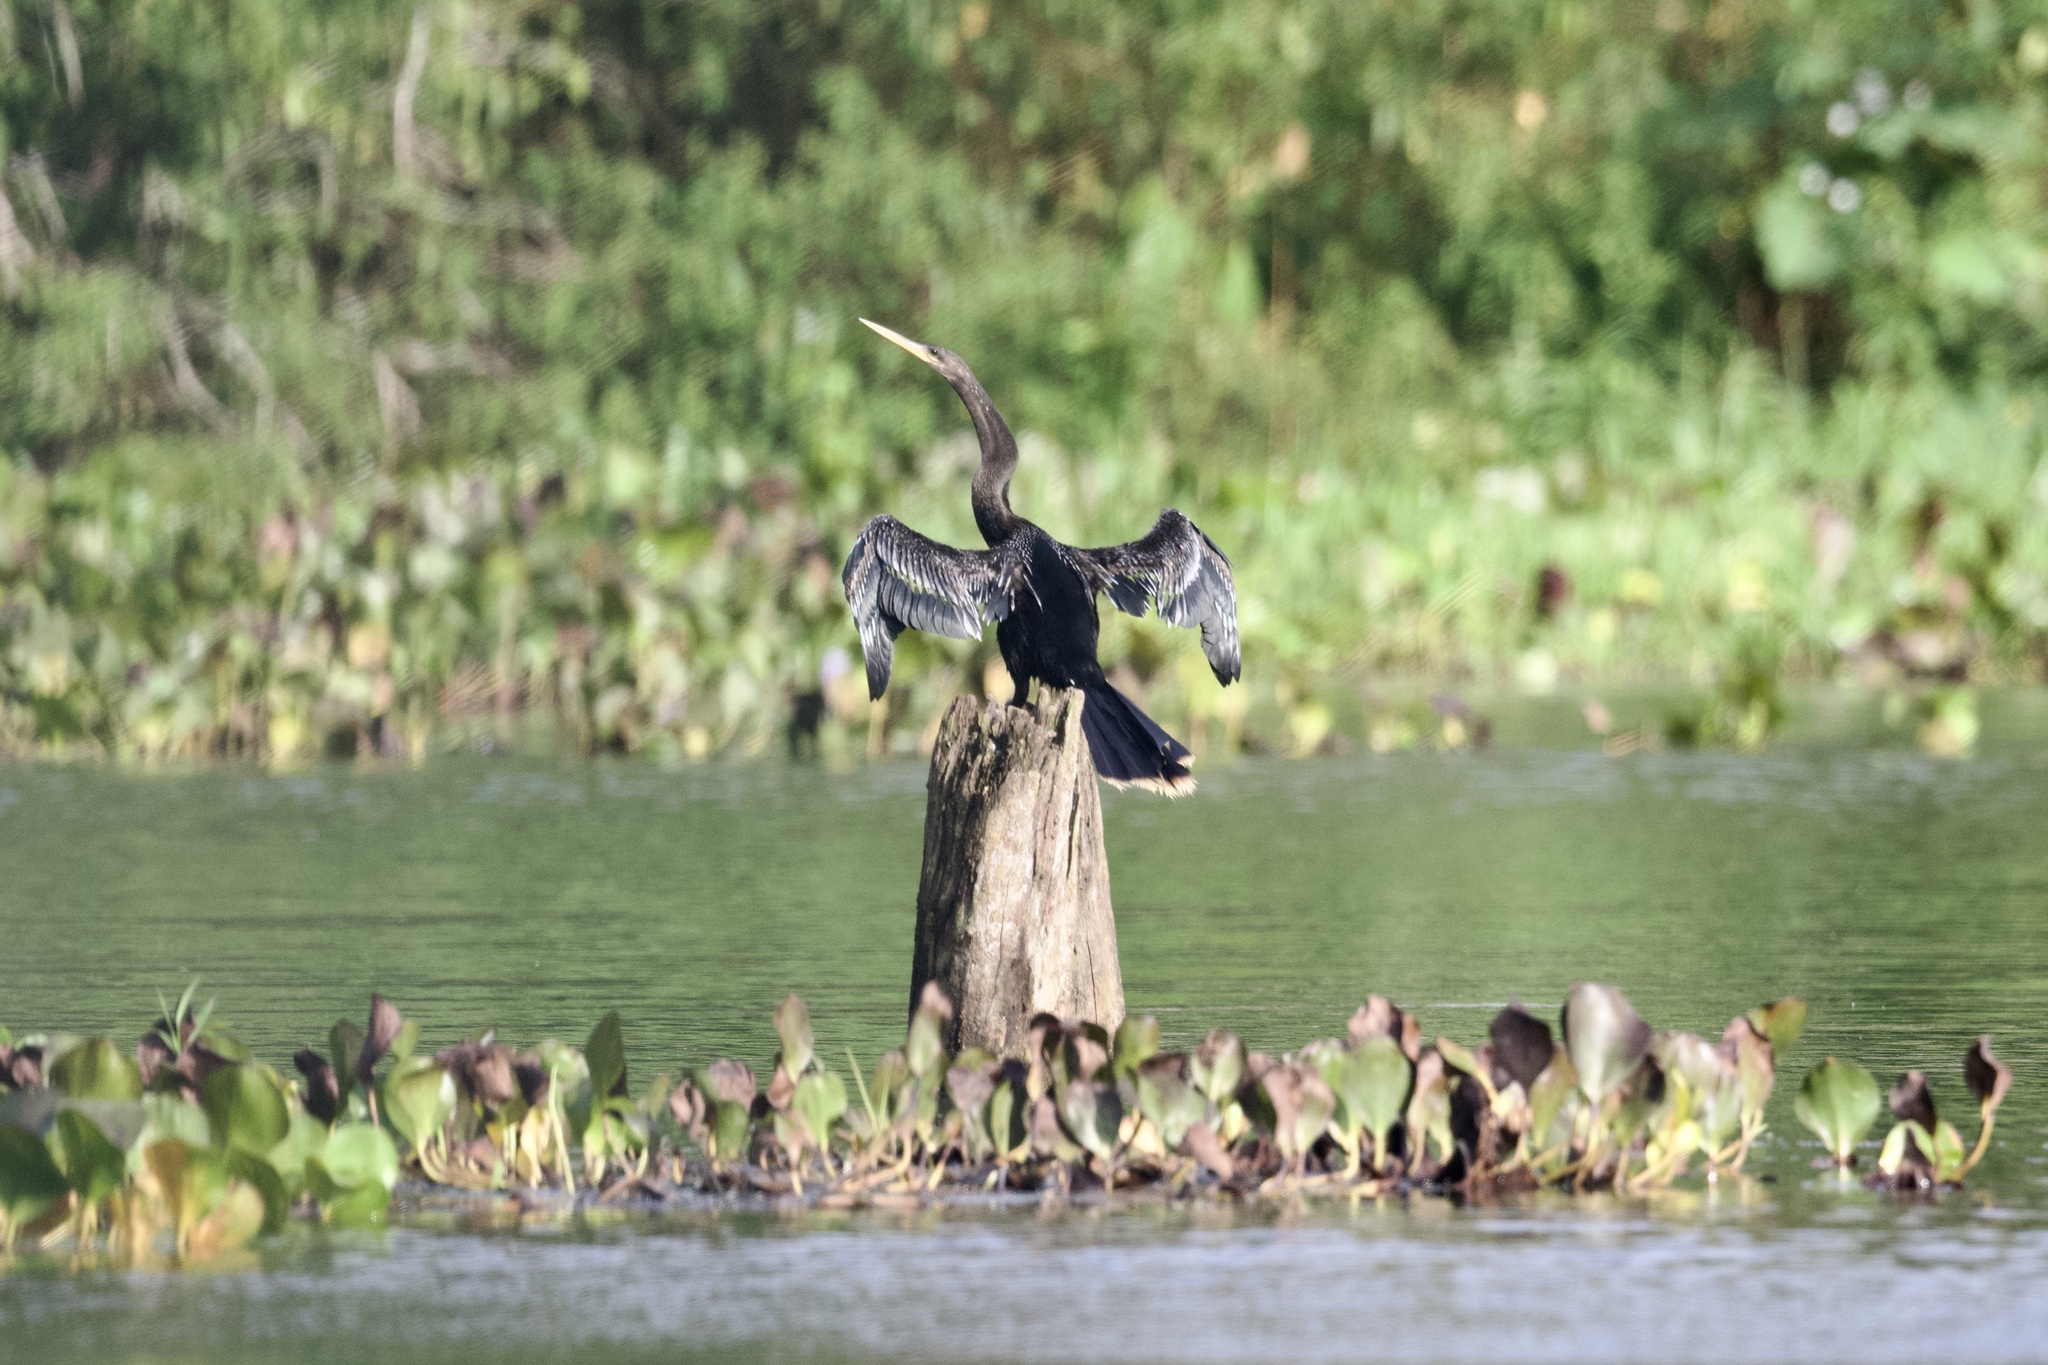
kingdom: Animalia
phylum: Chordata
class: Aves
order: Suliformes
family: Anhingidae
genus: Anhinga
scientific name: Anhinga anhinga
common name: Anhinga
